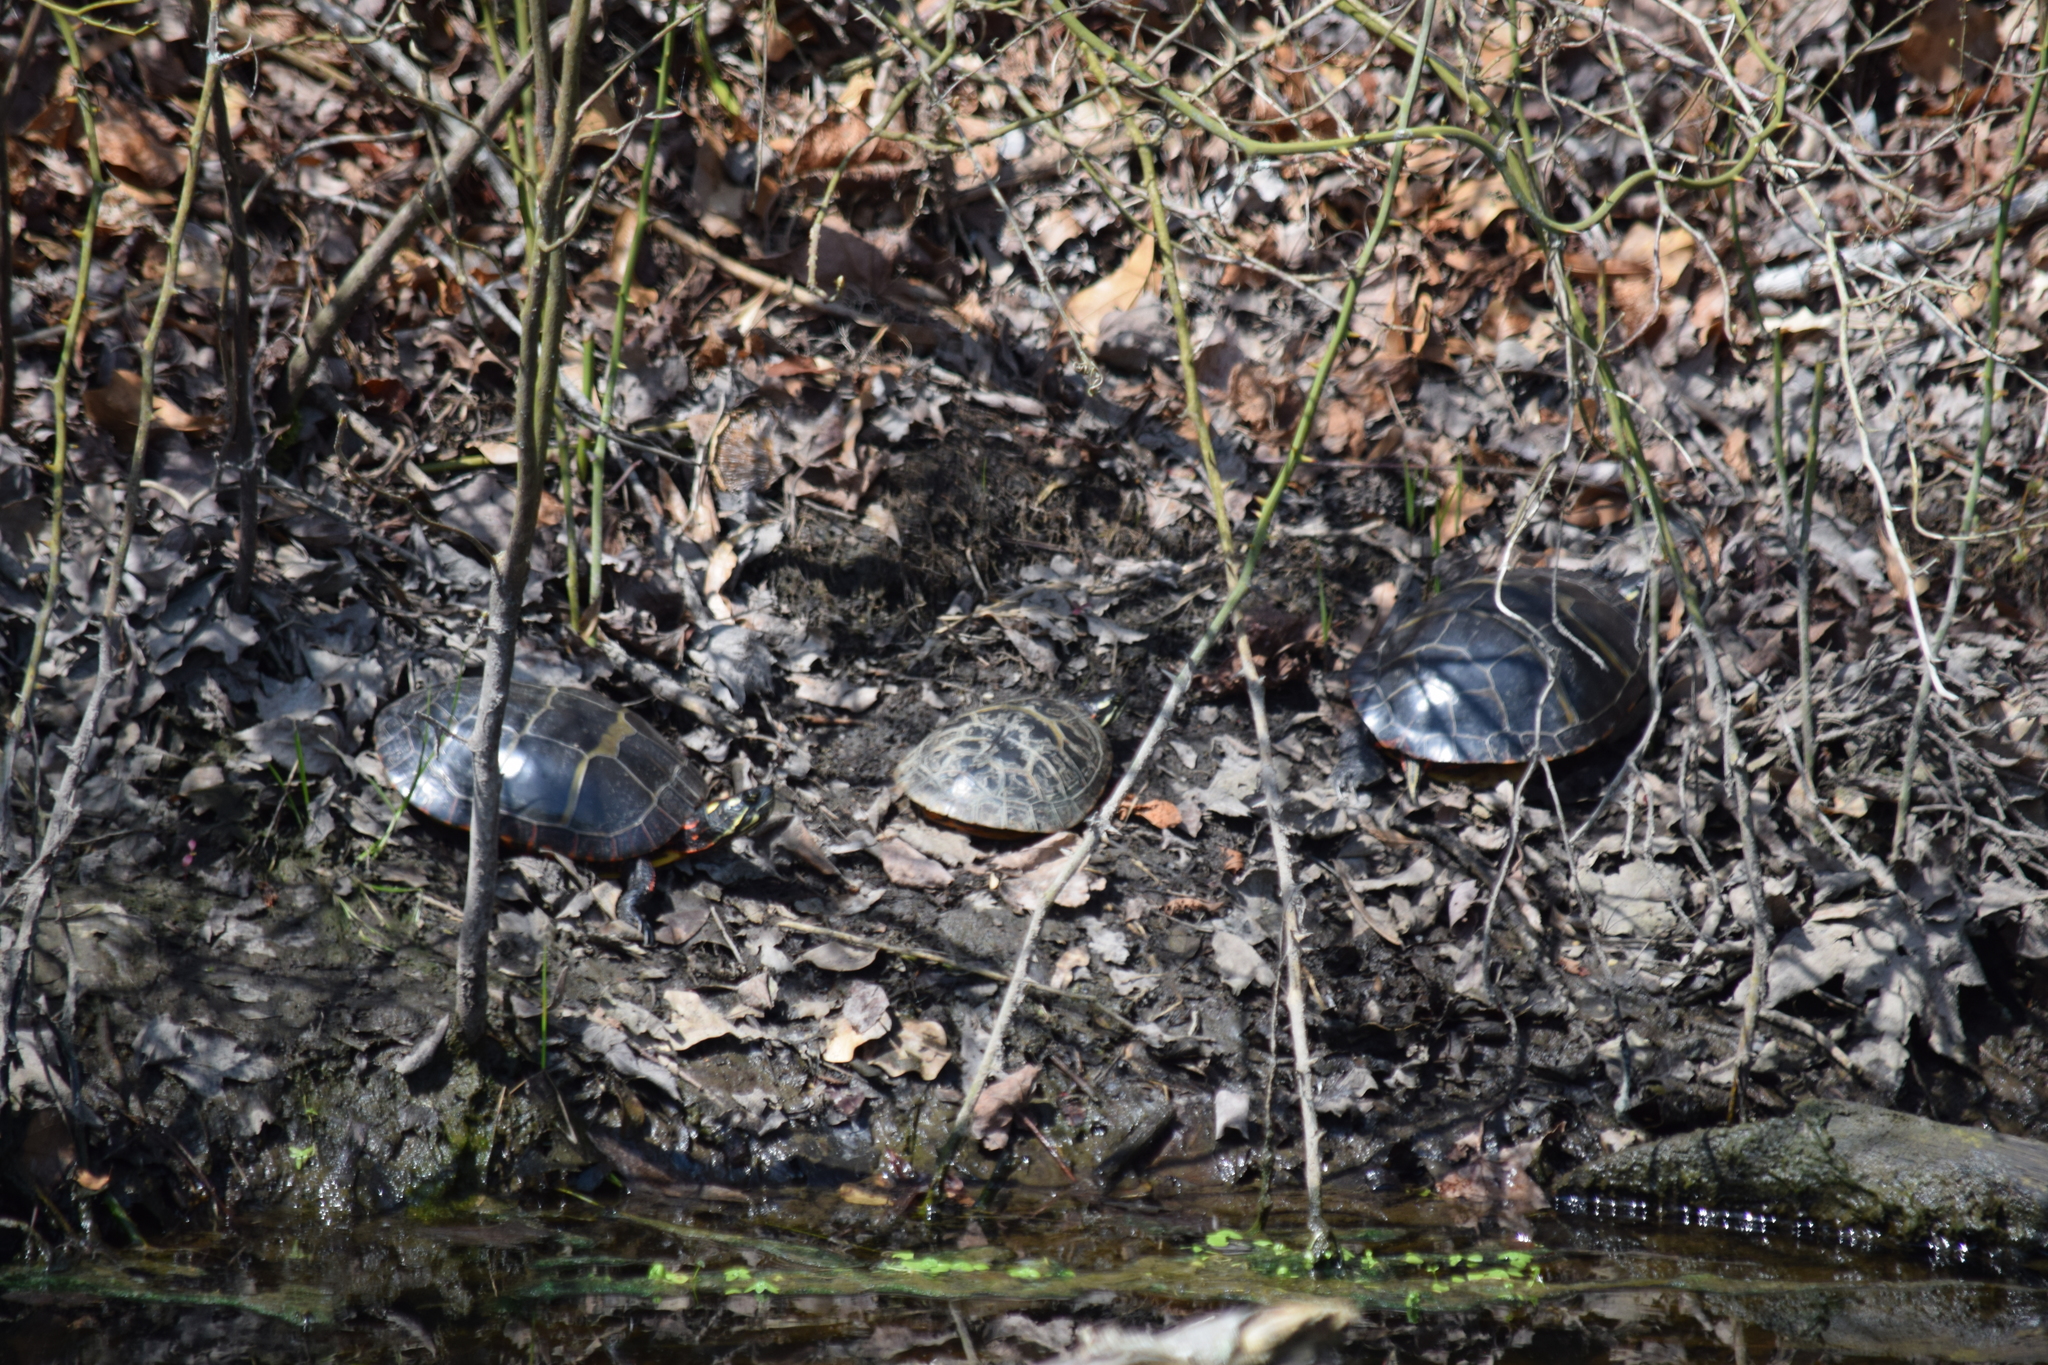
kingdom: Animalia
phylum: Chordata
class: Testudines
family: Emydidae
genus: Chrysemys
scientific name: Chrysemys picta
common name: Painted turtle
